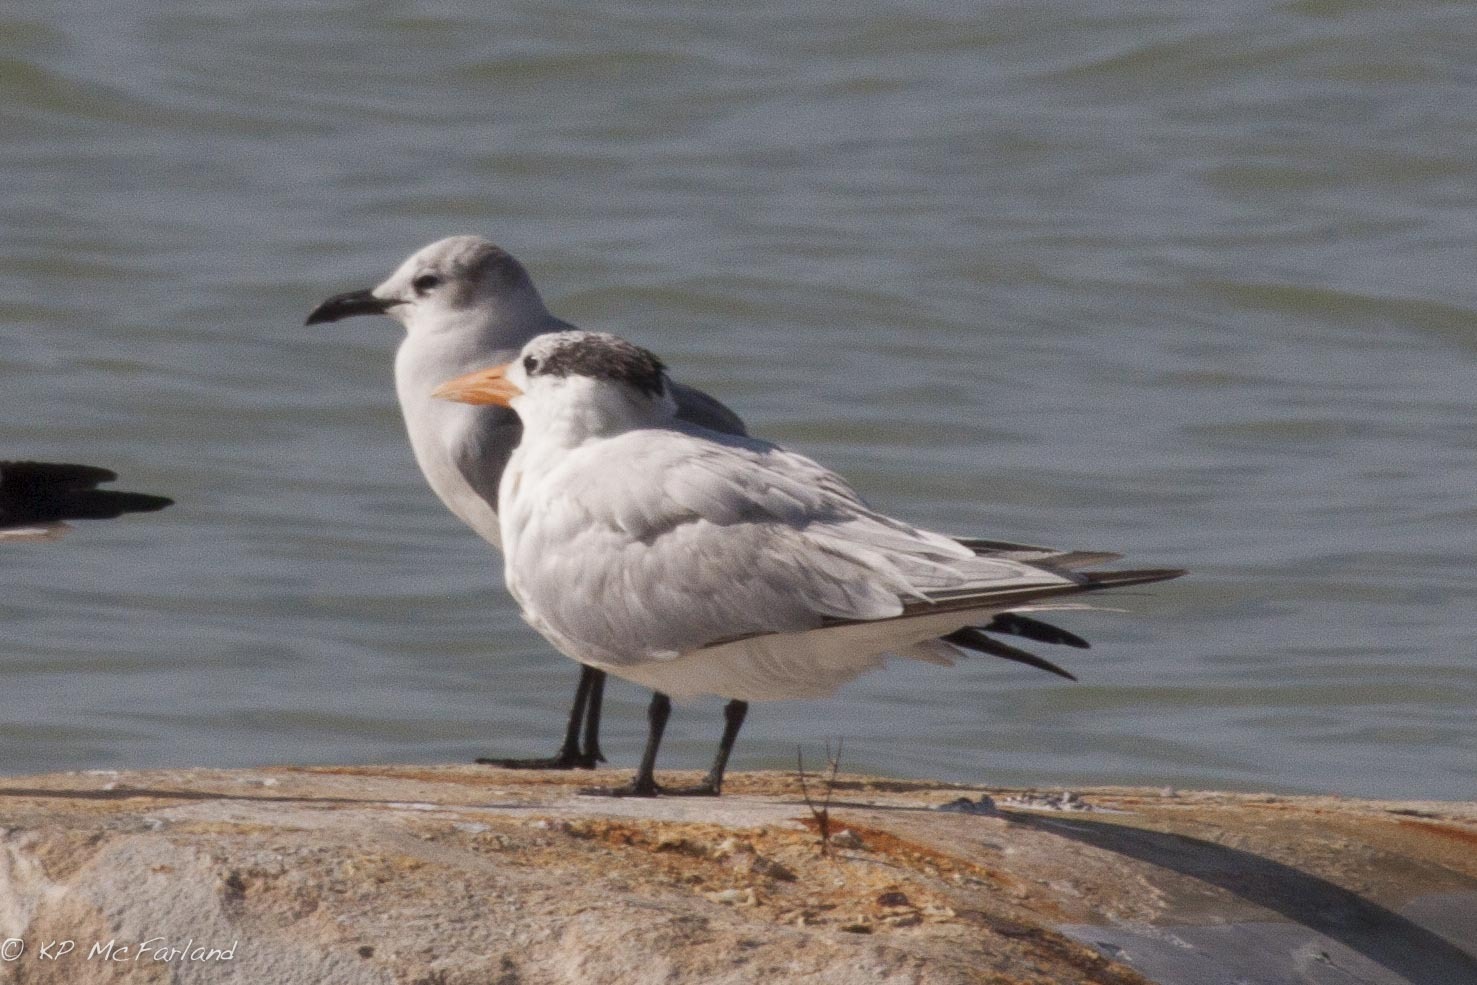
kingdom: Animalia
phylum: Chordata
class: Aves
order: Charadriiformes
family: Laridae
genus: Thalasseus
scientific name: Thalasseus maximus
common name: Royal tern
